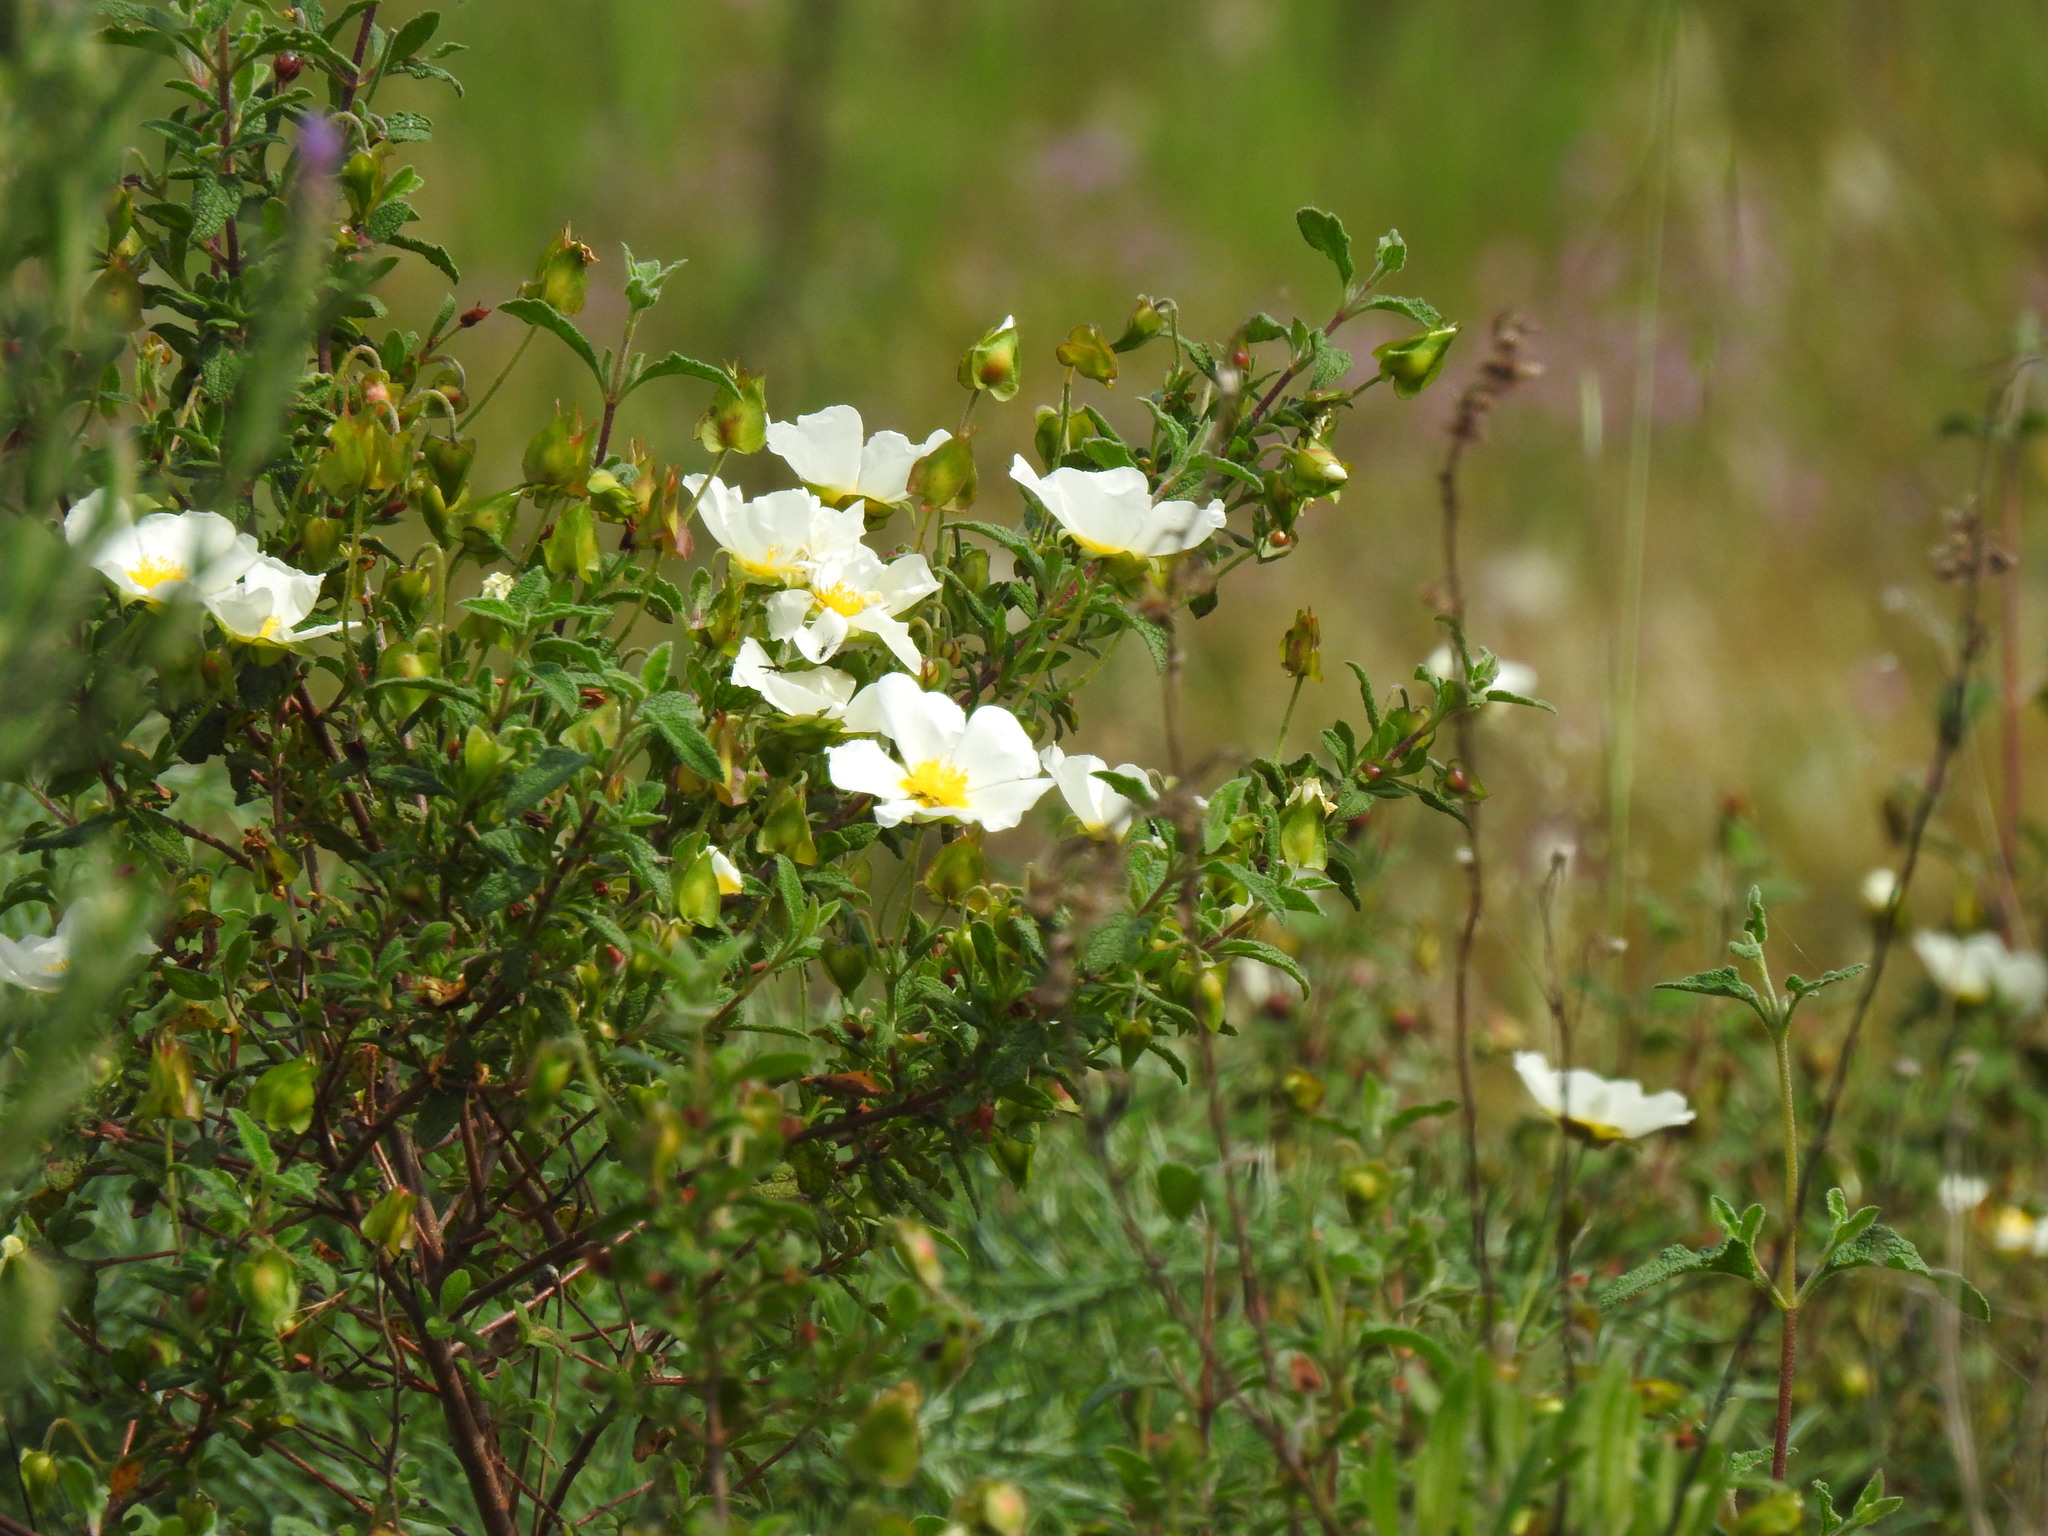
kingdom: Plantae
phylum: Tracheophyta
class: Magnoliopsida
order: Malvales
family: Cistaceae
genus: Cistus
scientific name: Cistus salviifolius
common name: Salvia cistus
